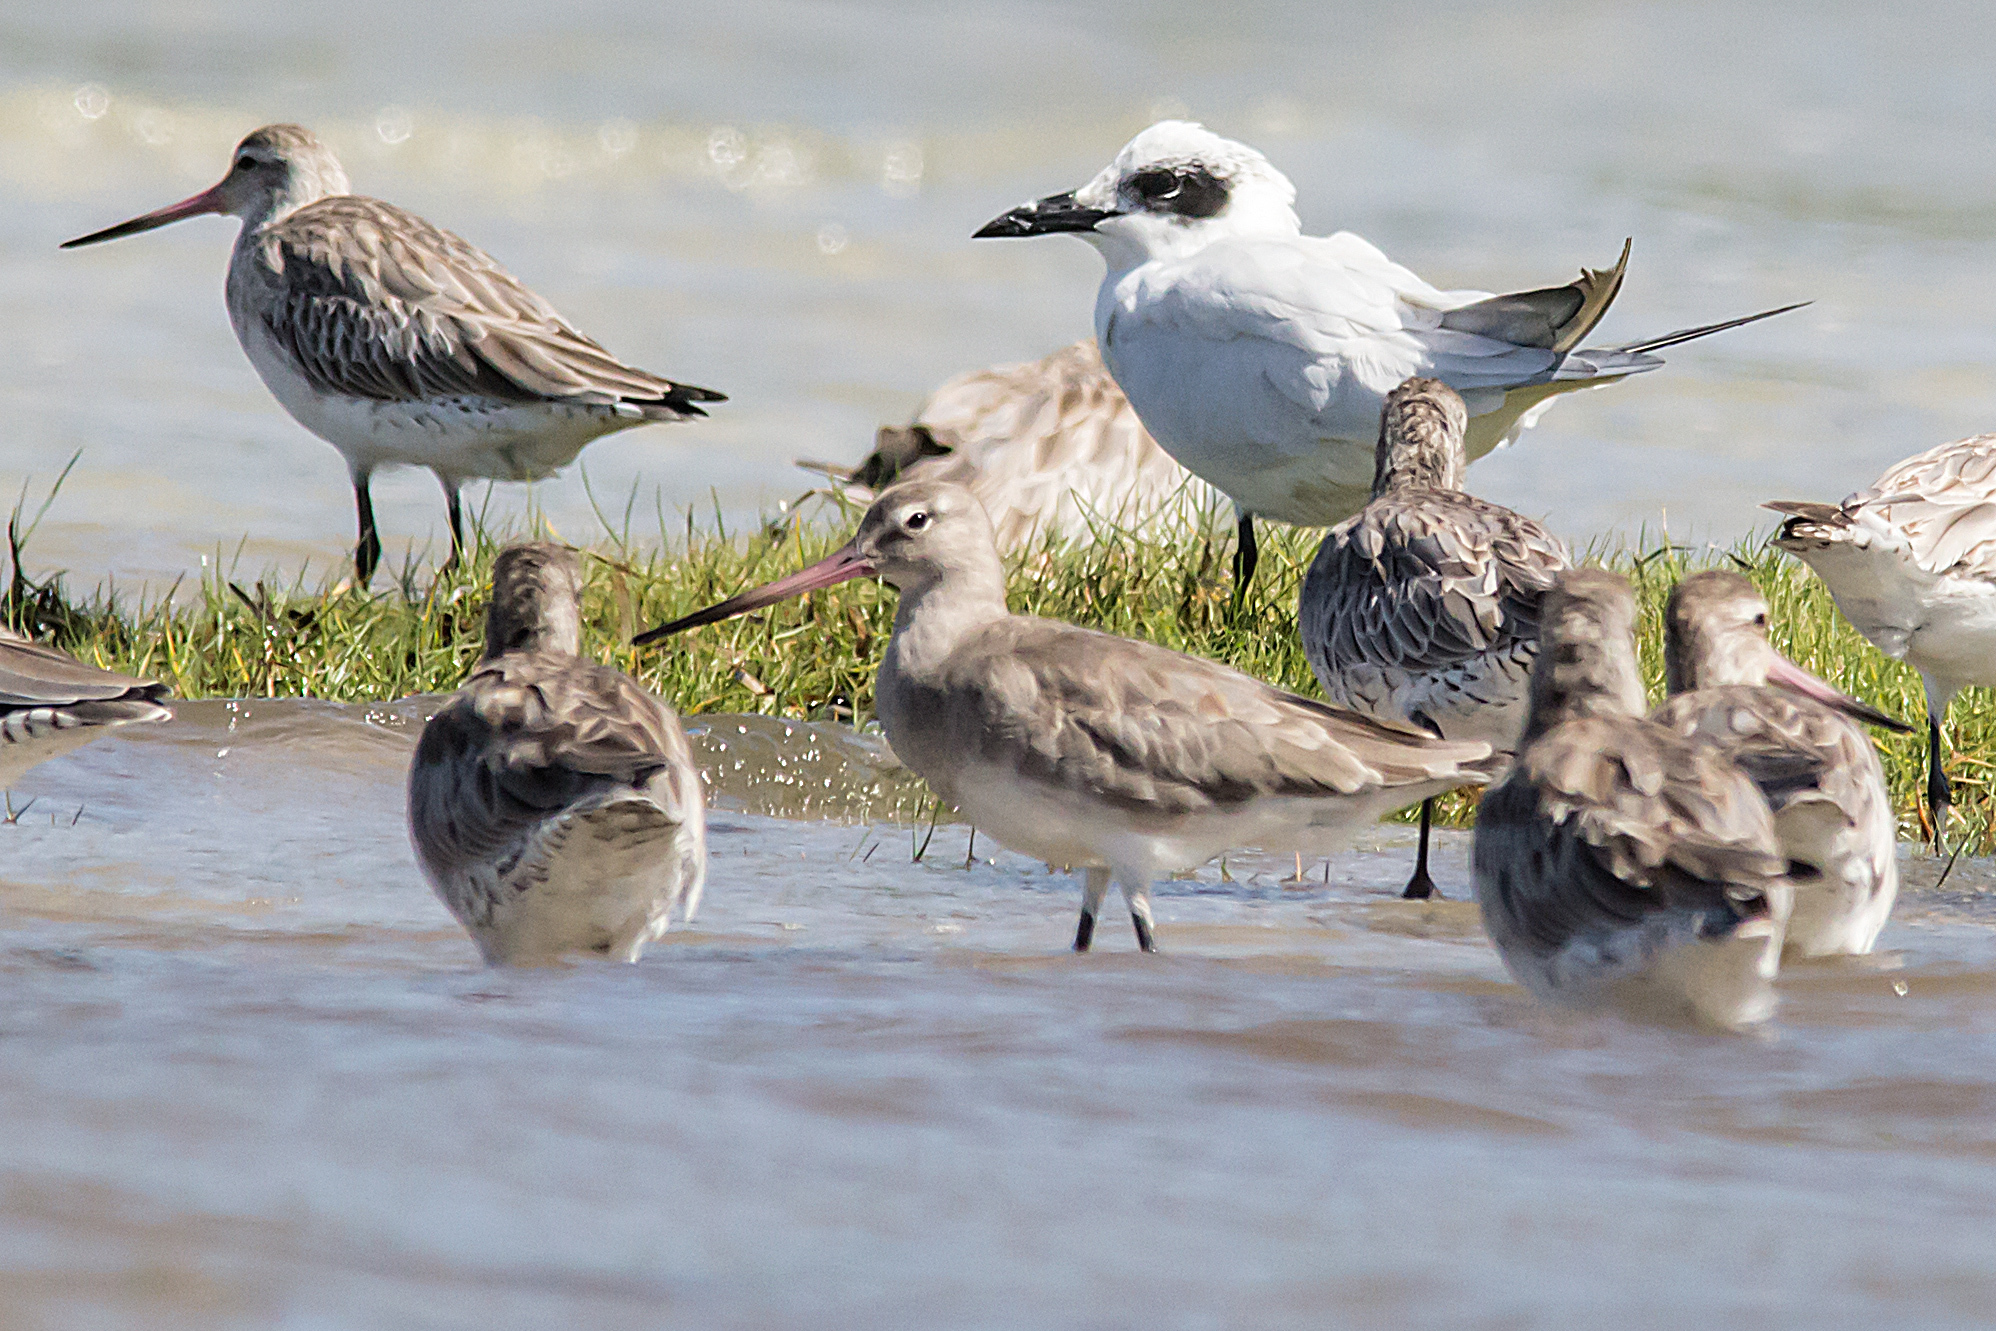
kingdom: Animalia
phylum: Chordata
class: Aves
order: Charadriiformes
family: Scolopacidae
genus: Limosa
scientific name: Limosa limosa
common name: Black-tailed godwit
